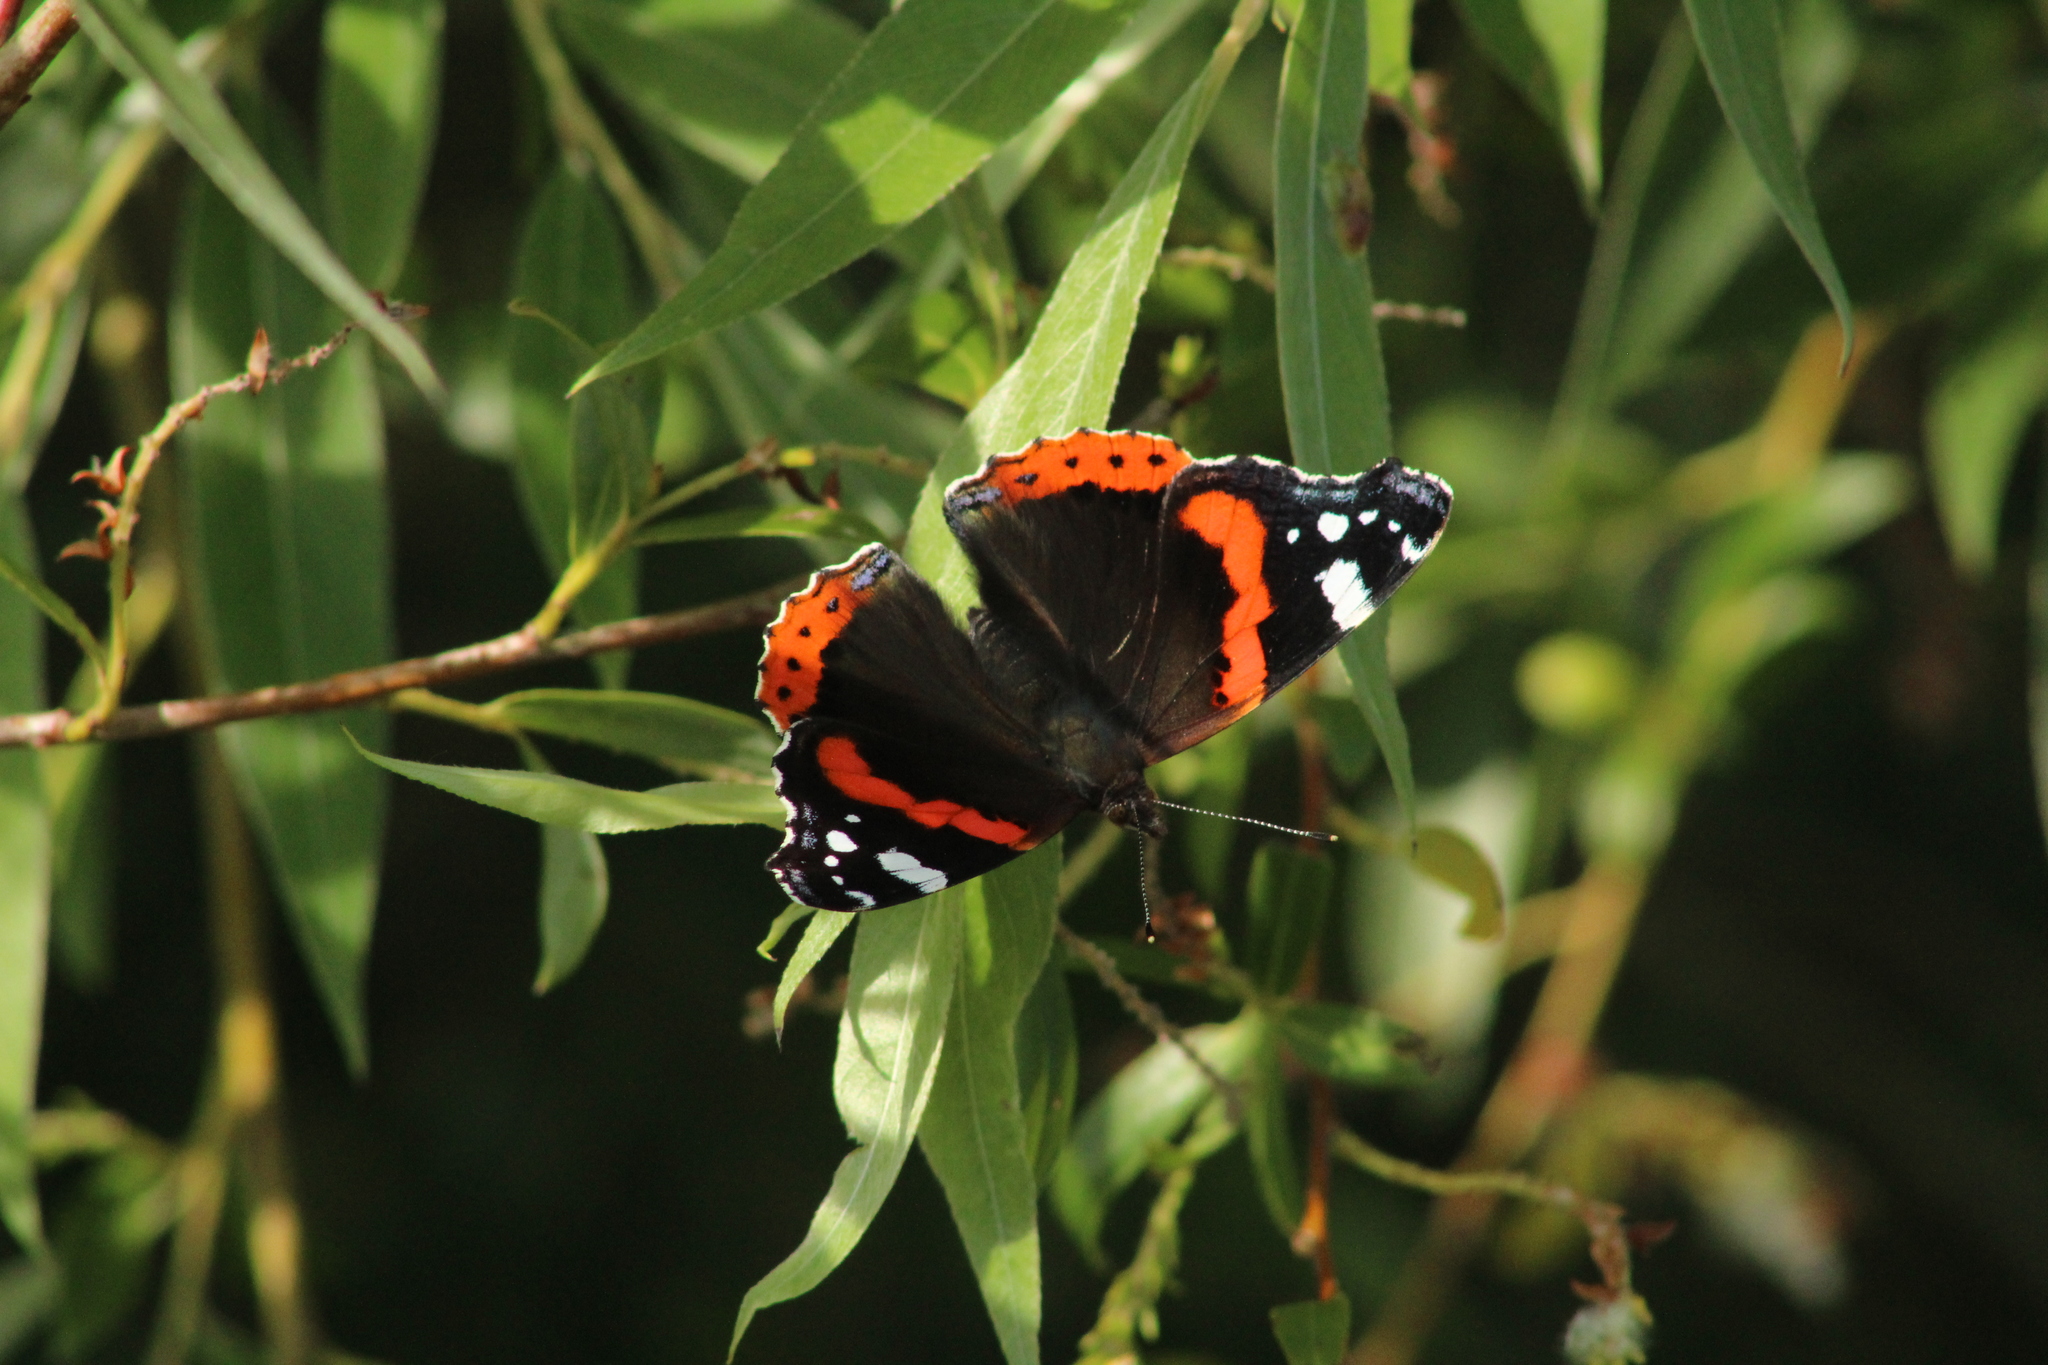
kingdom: Animalia
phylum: Arthropoda
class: Insecta
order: Lepidoptera
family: Nymphalidae
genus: Vanessa
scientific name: Vanessa atalanta
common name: Red admiral
